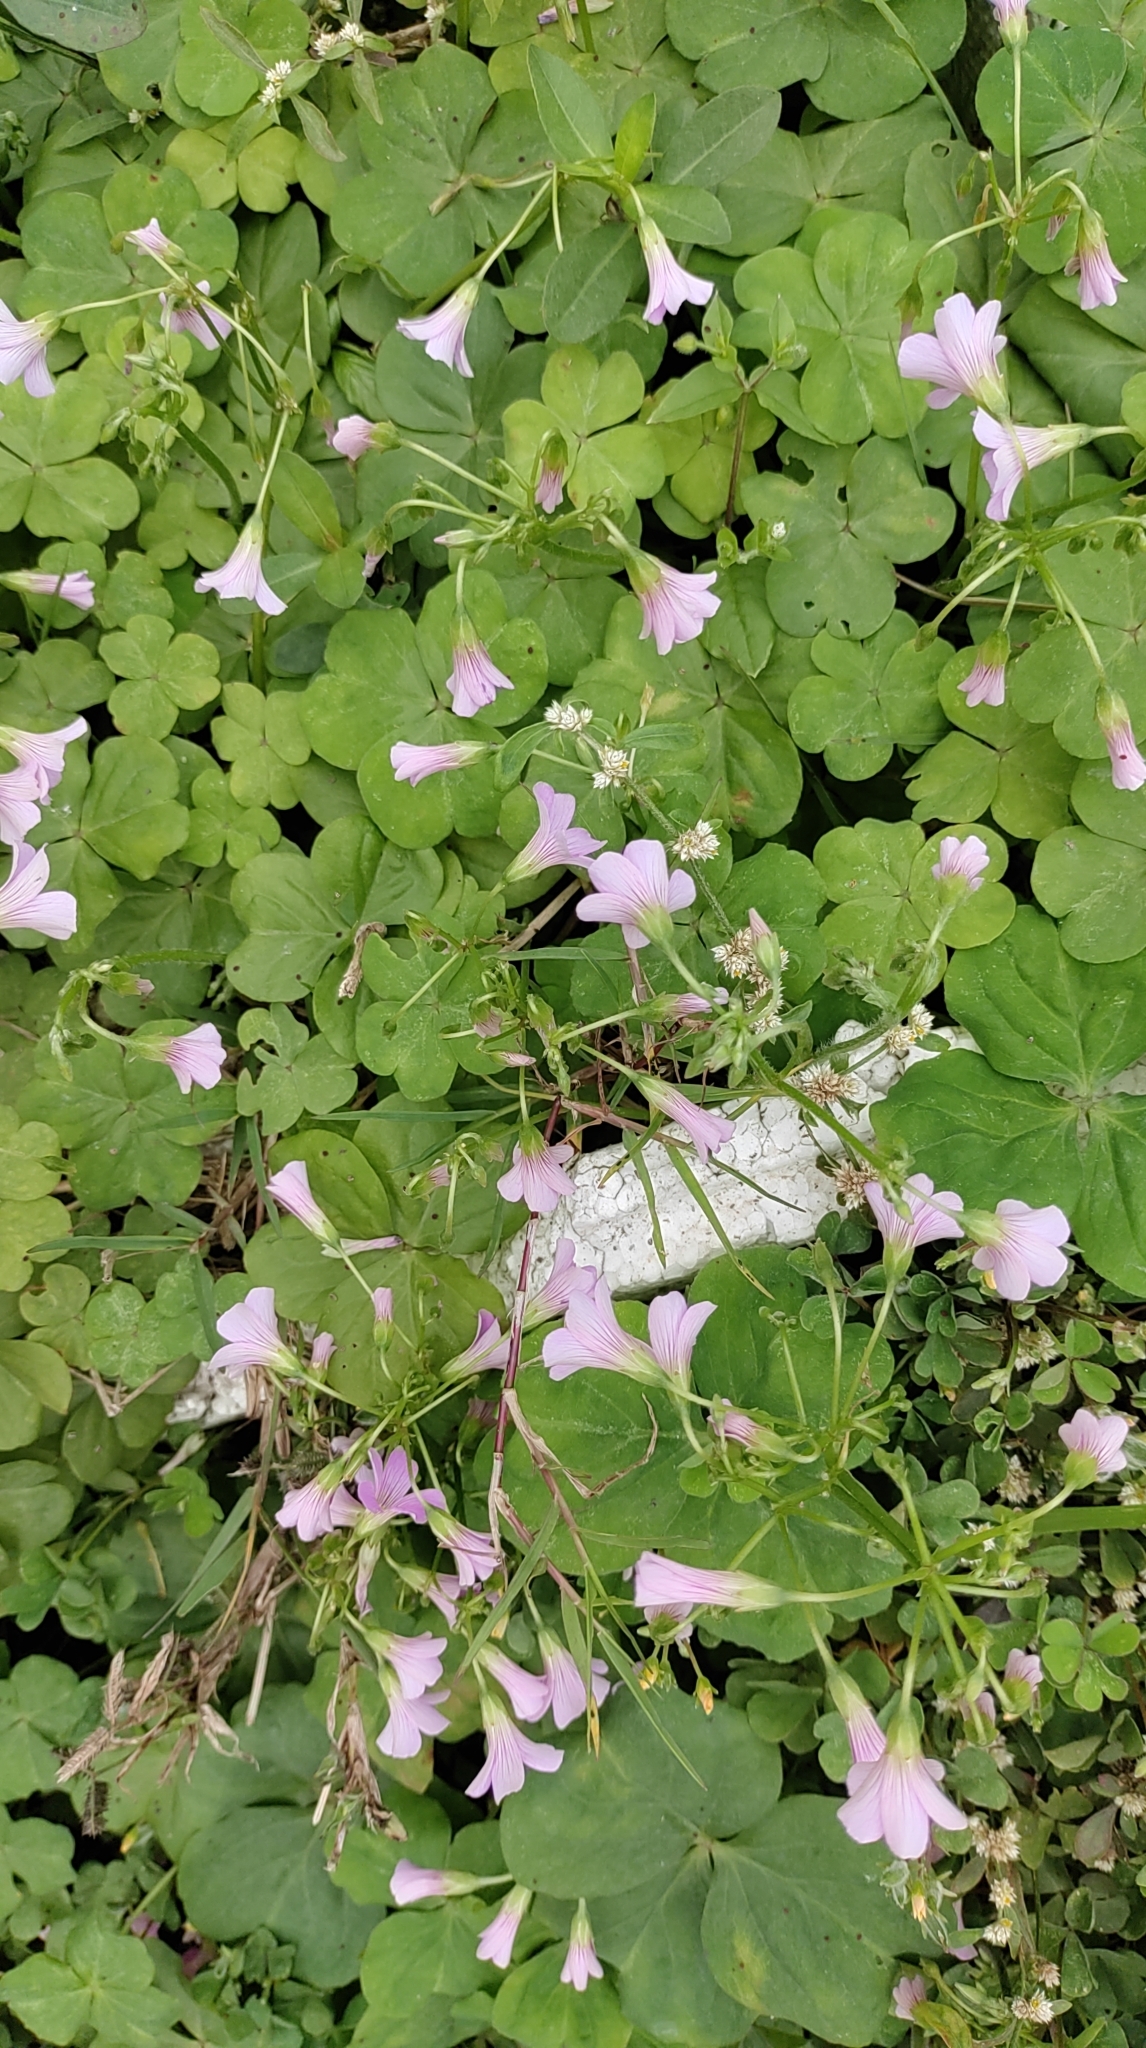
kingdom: Plantae
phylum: Tracheophyta
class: Magnoliopsida
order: Oxalidales
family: Oxalidaceae
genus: Oxalis
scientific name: Oxalis debilis
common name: Large-flowered pink-sorrel
